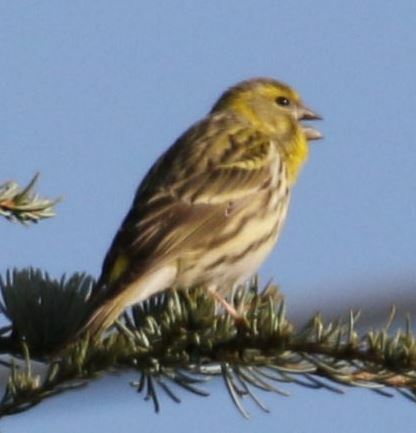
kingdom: Animalia
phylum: Chordata
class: Aves
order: Passeriformes
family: Fringillidae
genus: Serinus
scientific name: Serinus serinus
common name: European serin
